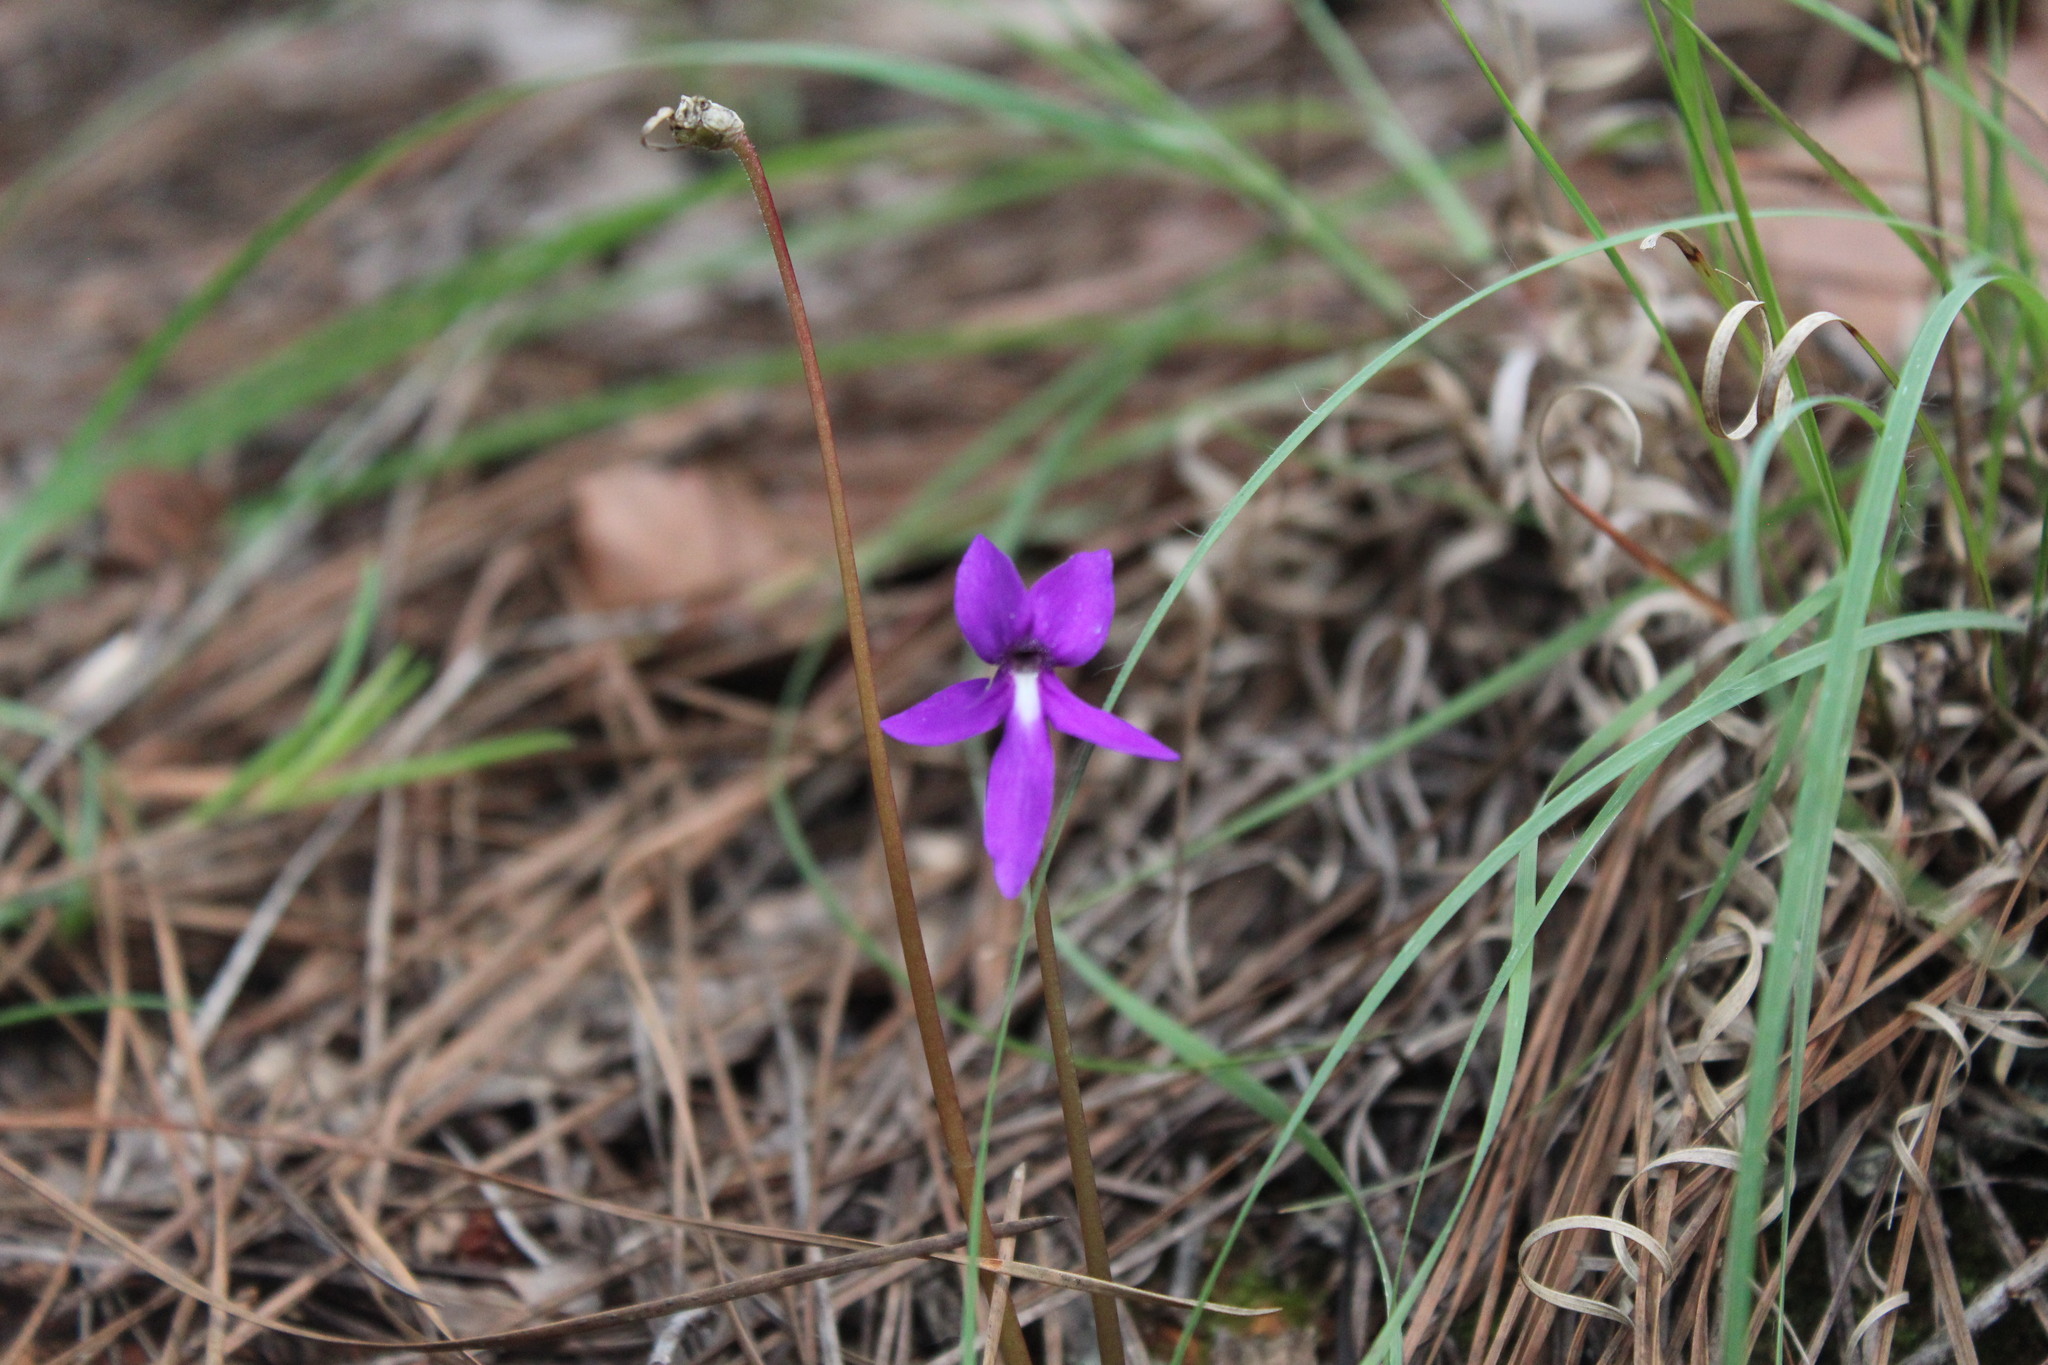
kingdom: Plantae
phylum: Tracheophyta
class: Magnoliopsida
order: Lamiales
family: Lentibulariaceae
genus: Pinguicula
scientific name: Pinguicula orchidioides
